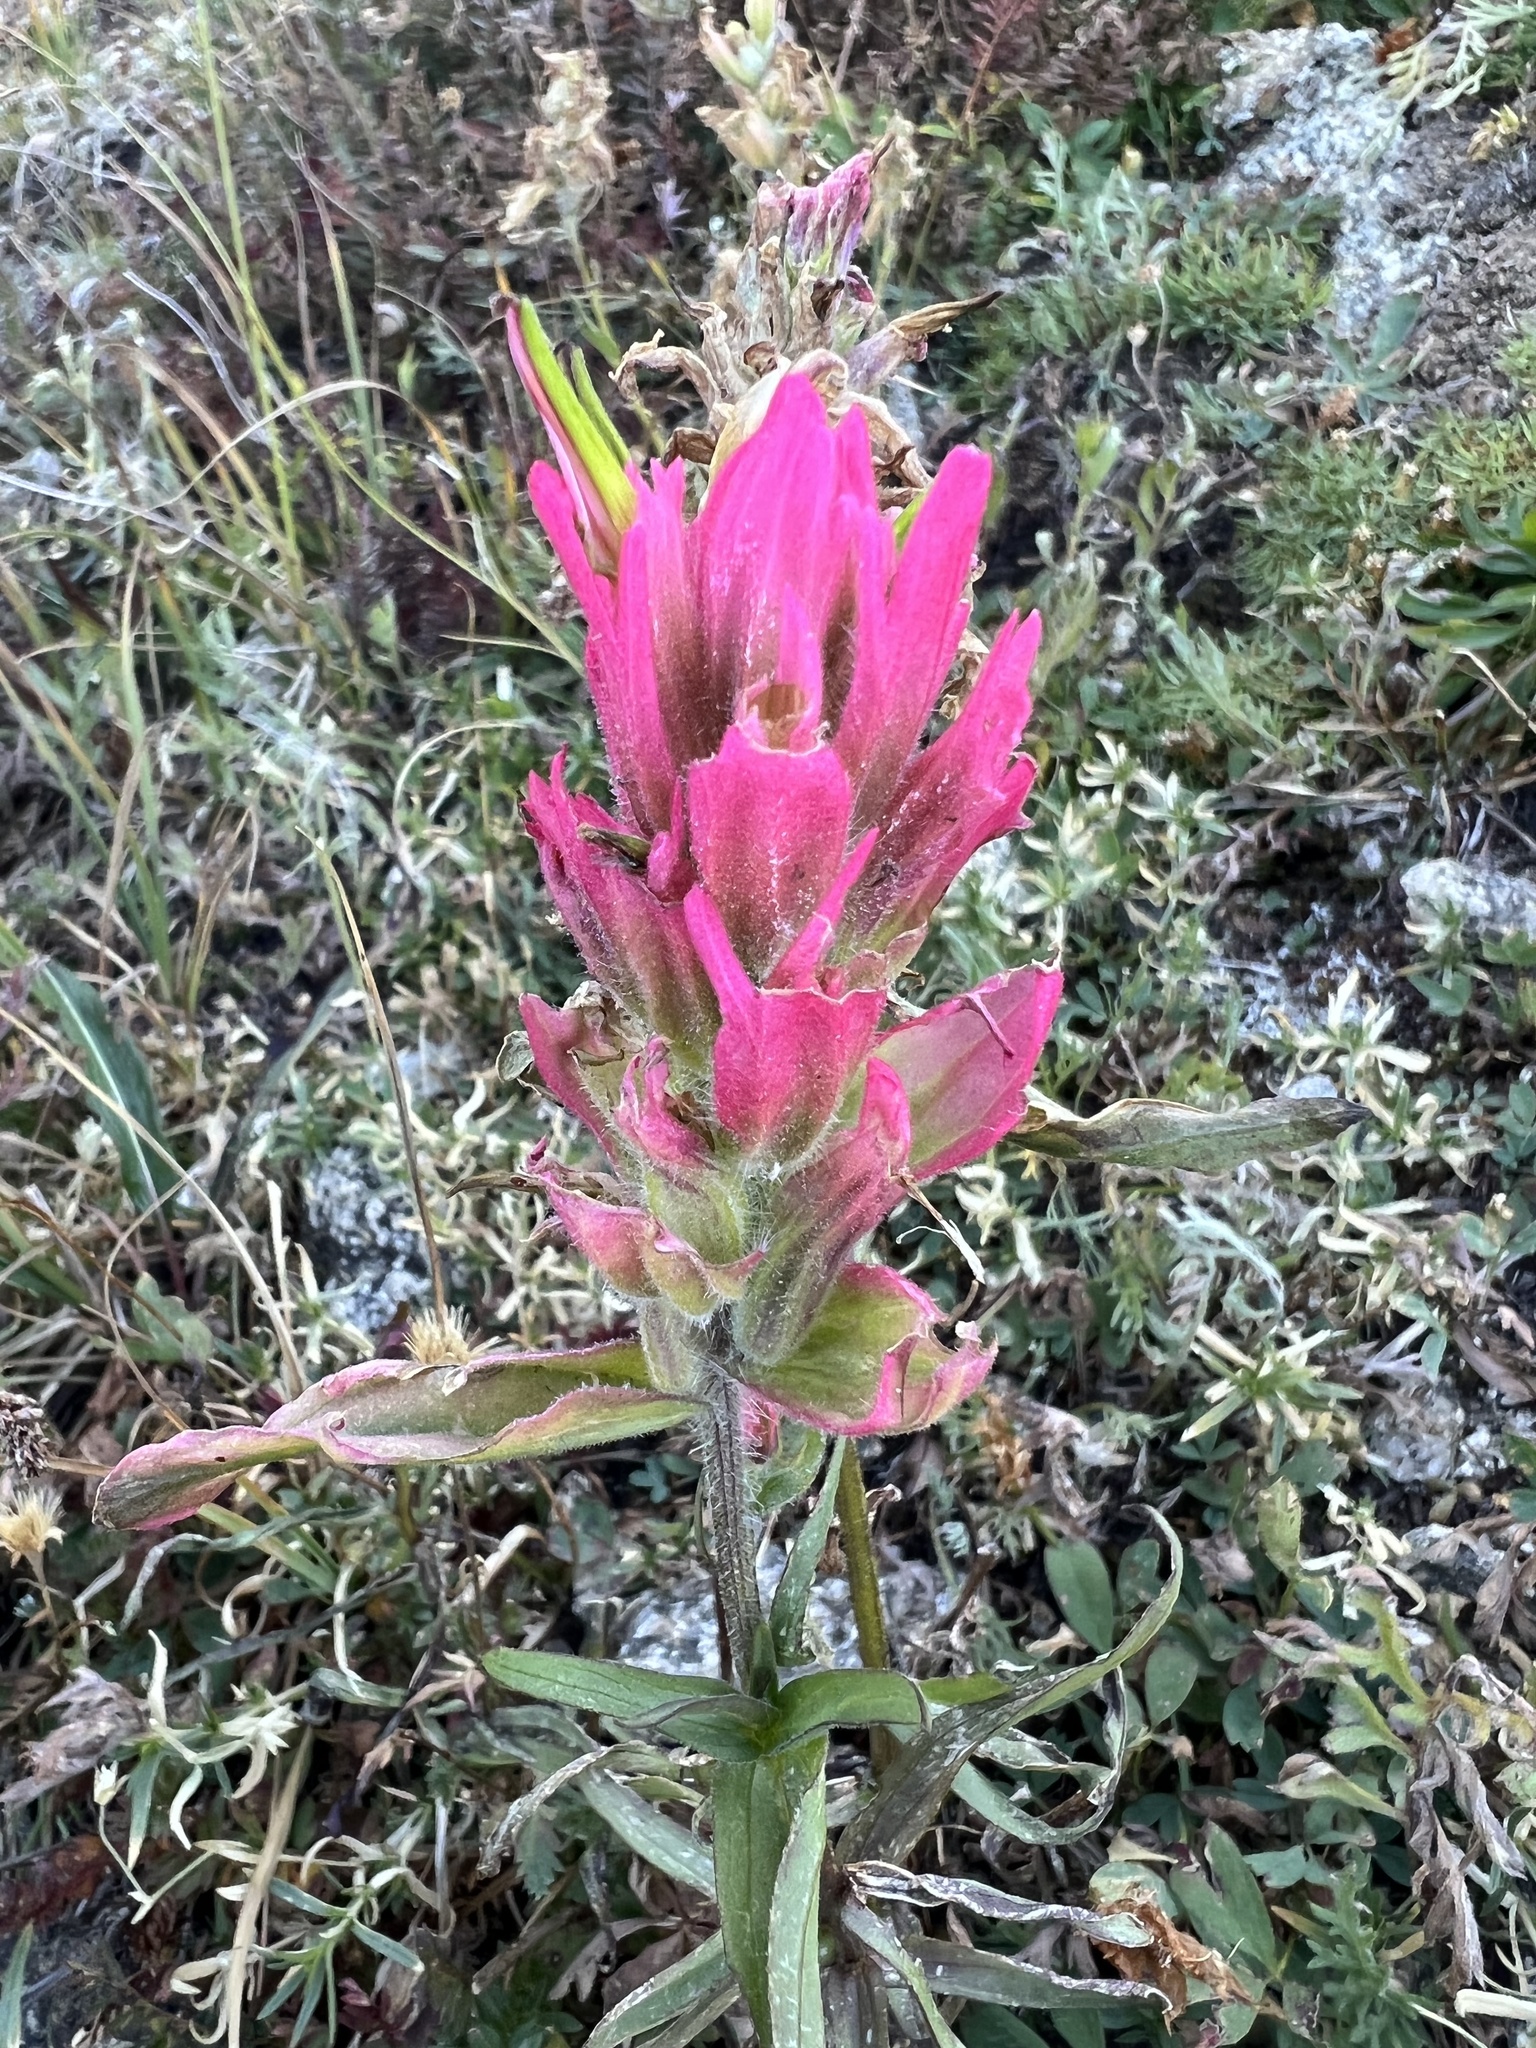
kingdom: Plantae
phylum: Tracheophyta
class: Magnoliopsida
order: Lamiales
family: Orobanchaceae
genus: Castilleja
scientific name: Castilleja rhexifolia
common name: Rocky mountain paintbrush
